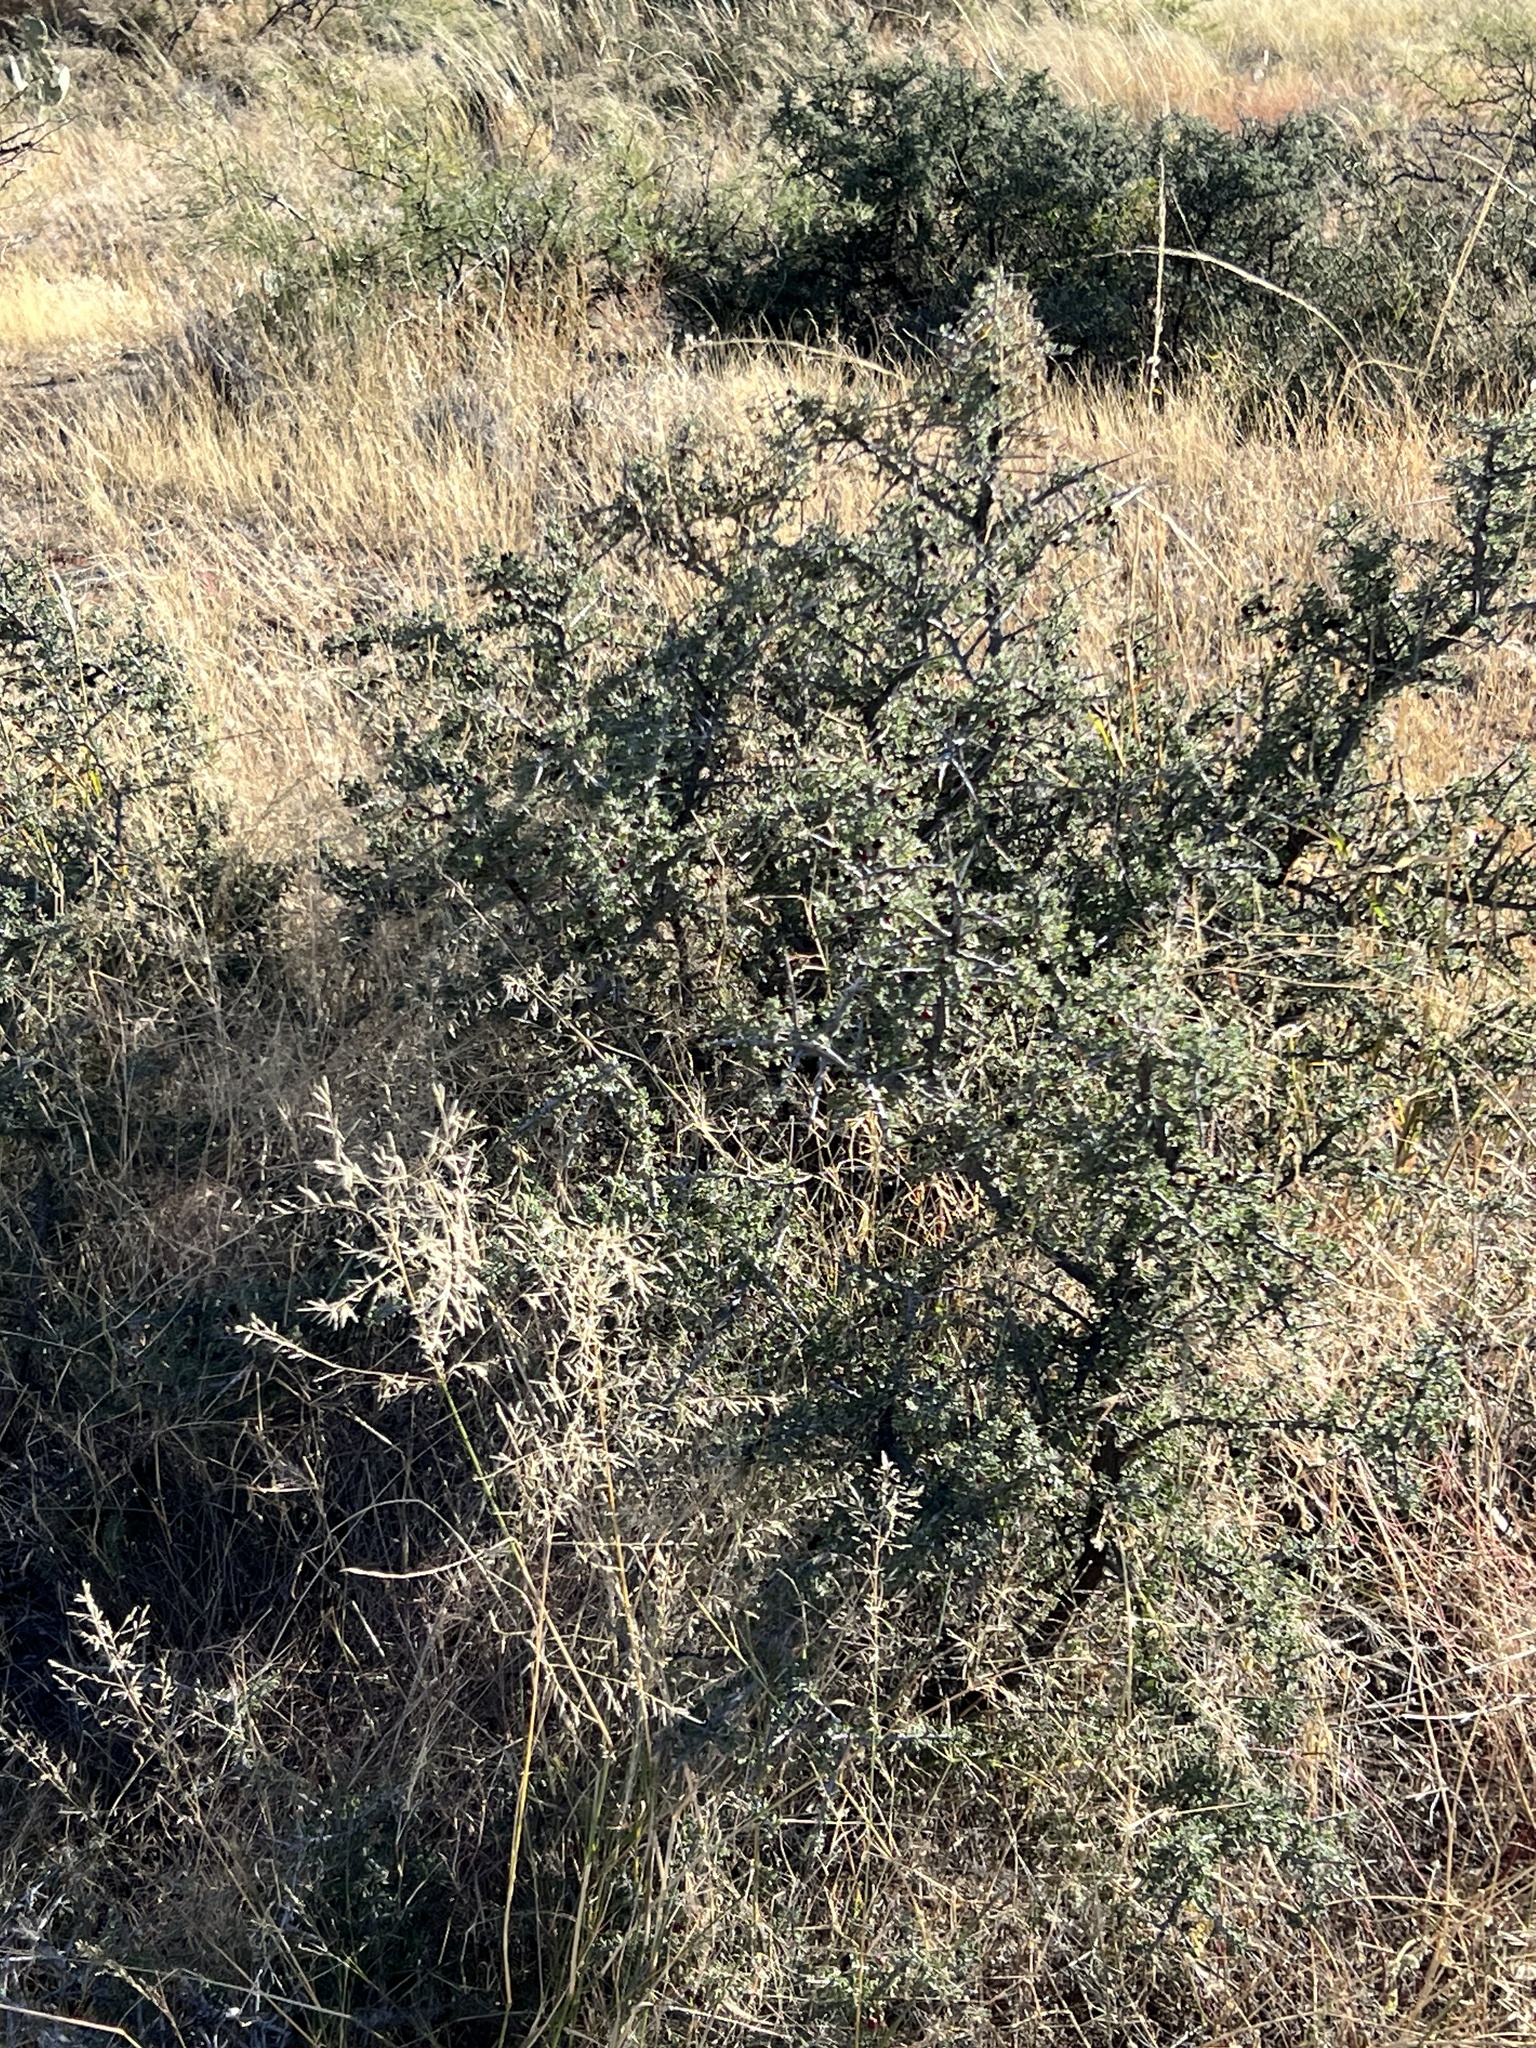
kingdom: Plantae
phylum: Tracheophyta
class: Magnoliopsida
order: Rosales
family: Rhamnaceae
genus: Condalia
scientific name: Condalia warnockii
